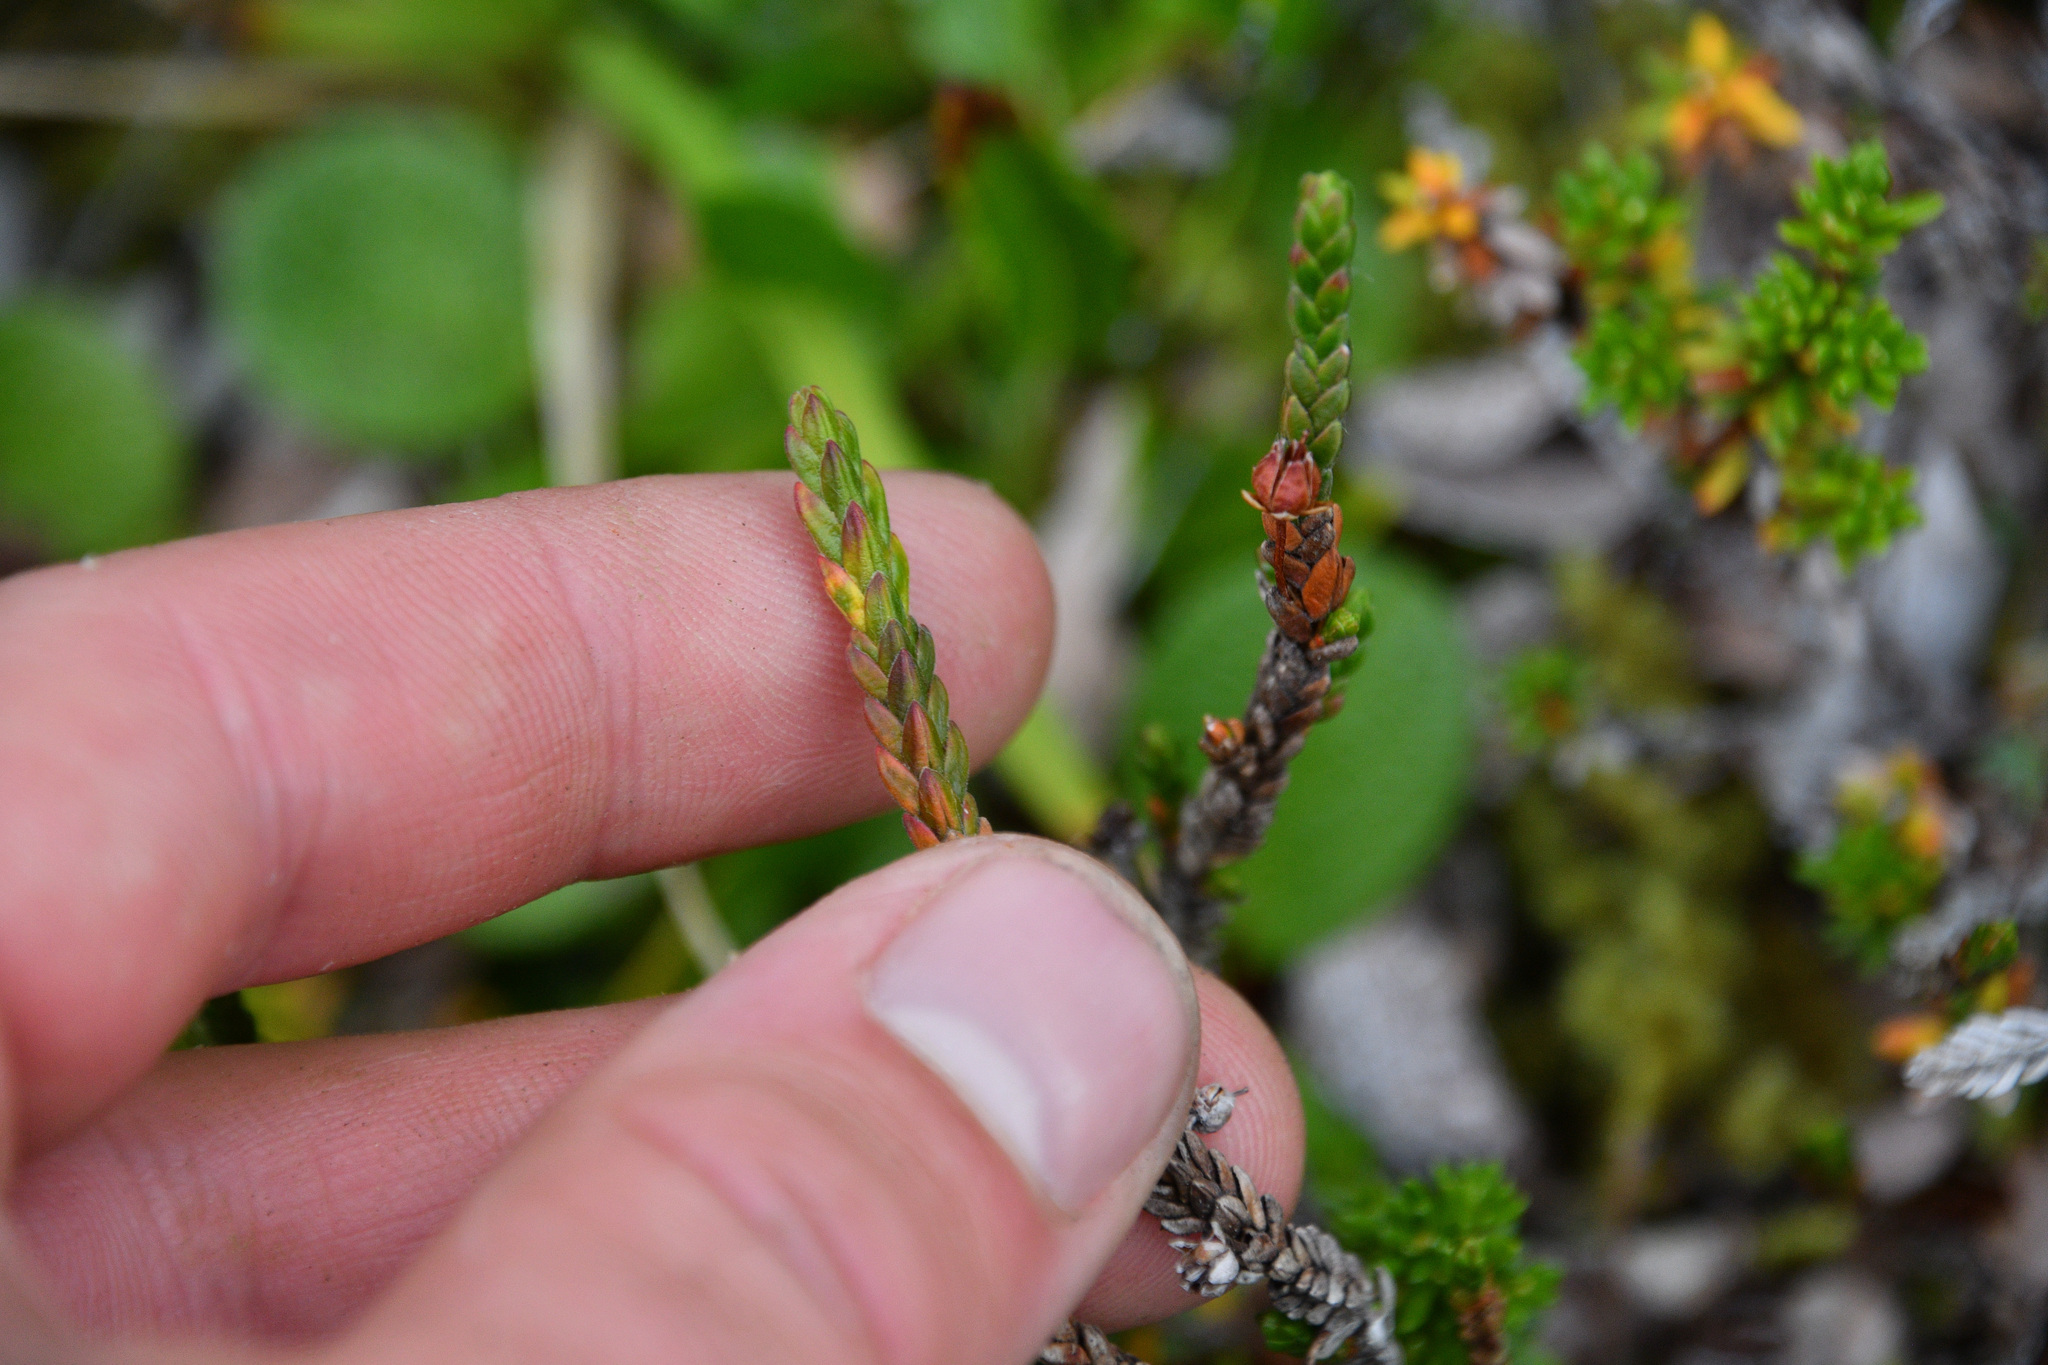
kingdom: Plantae
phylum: Tracheophyta
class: Magnoliopsida
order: Ericales
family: Ericaceae
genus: Cassiope
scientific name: Cassiope tetragona
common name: Arctic bell heather
